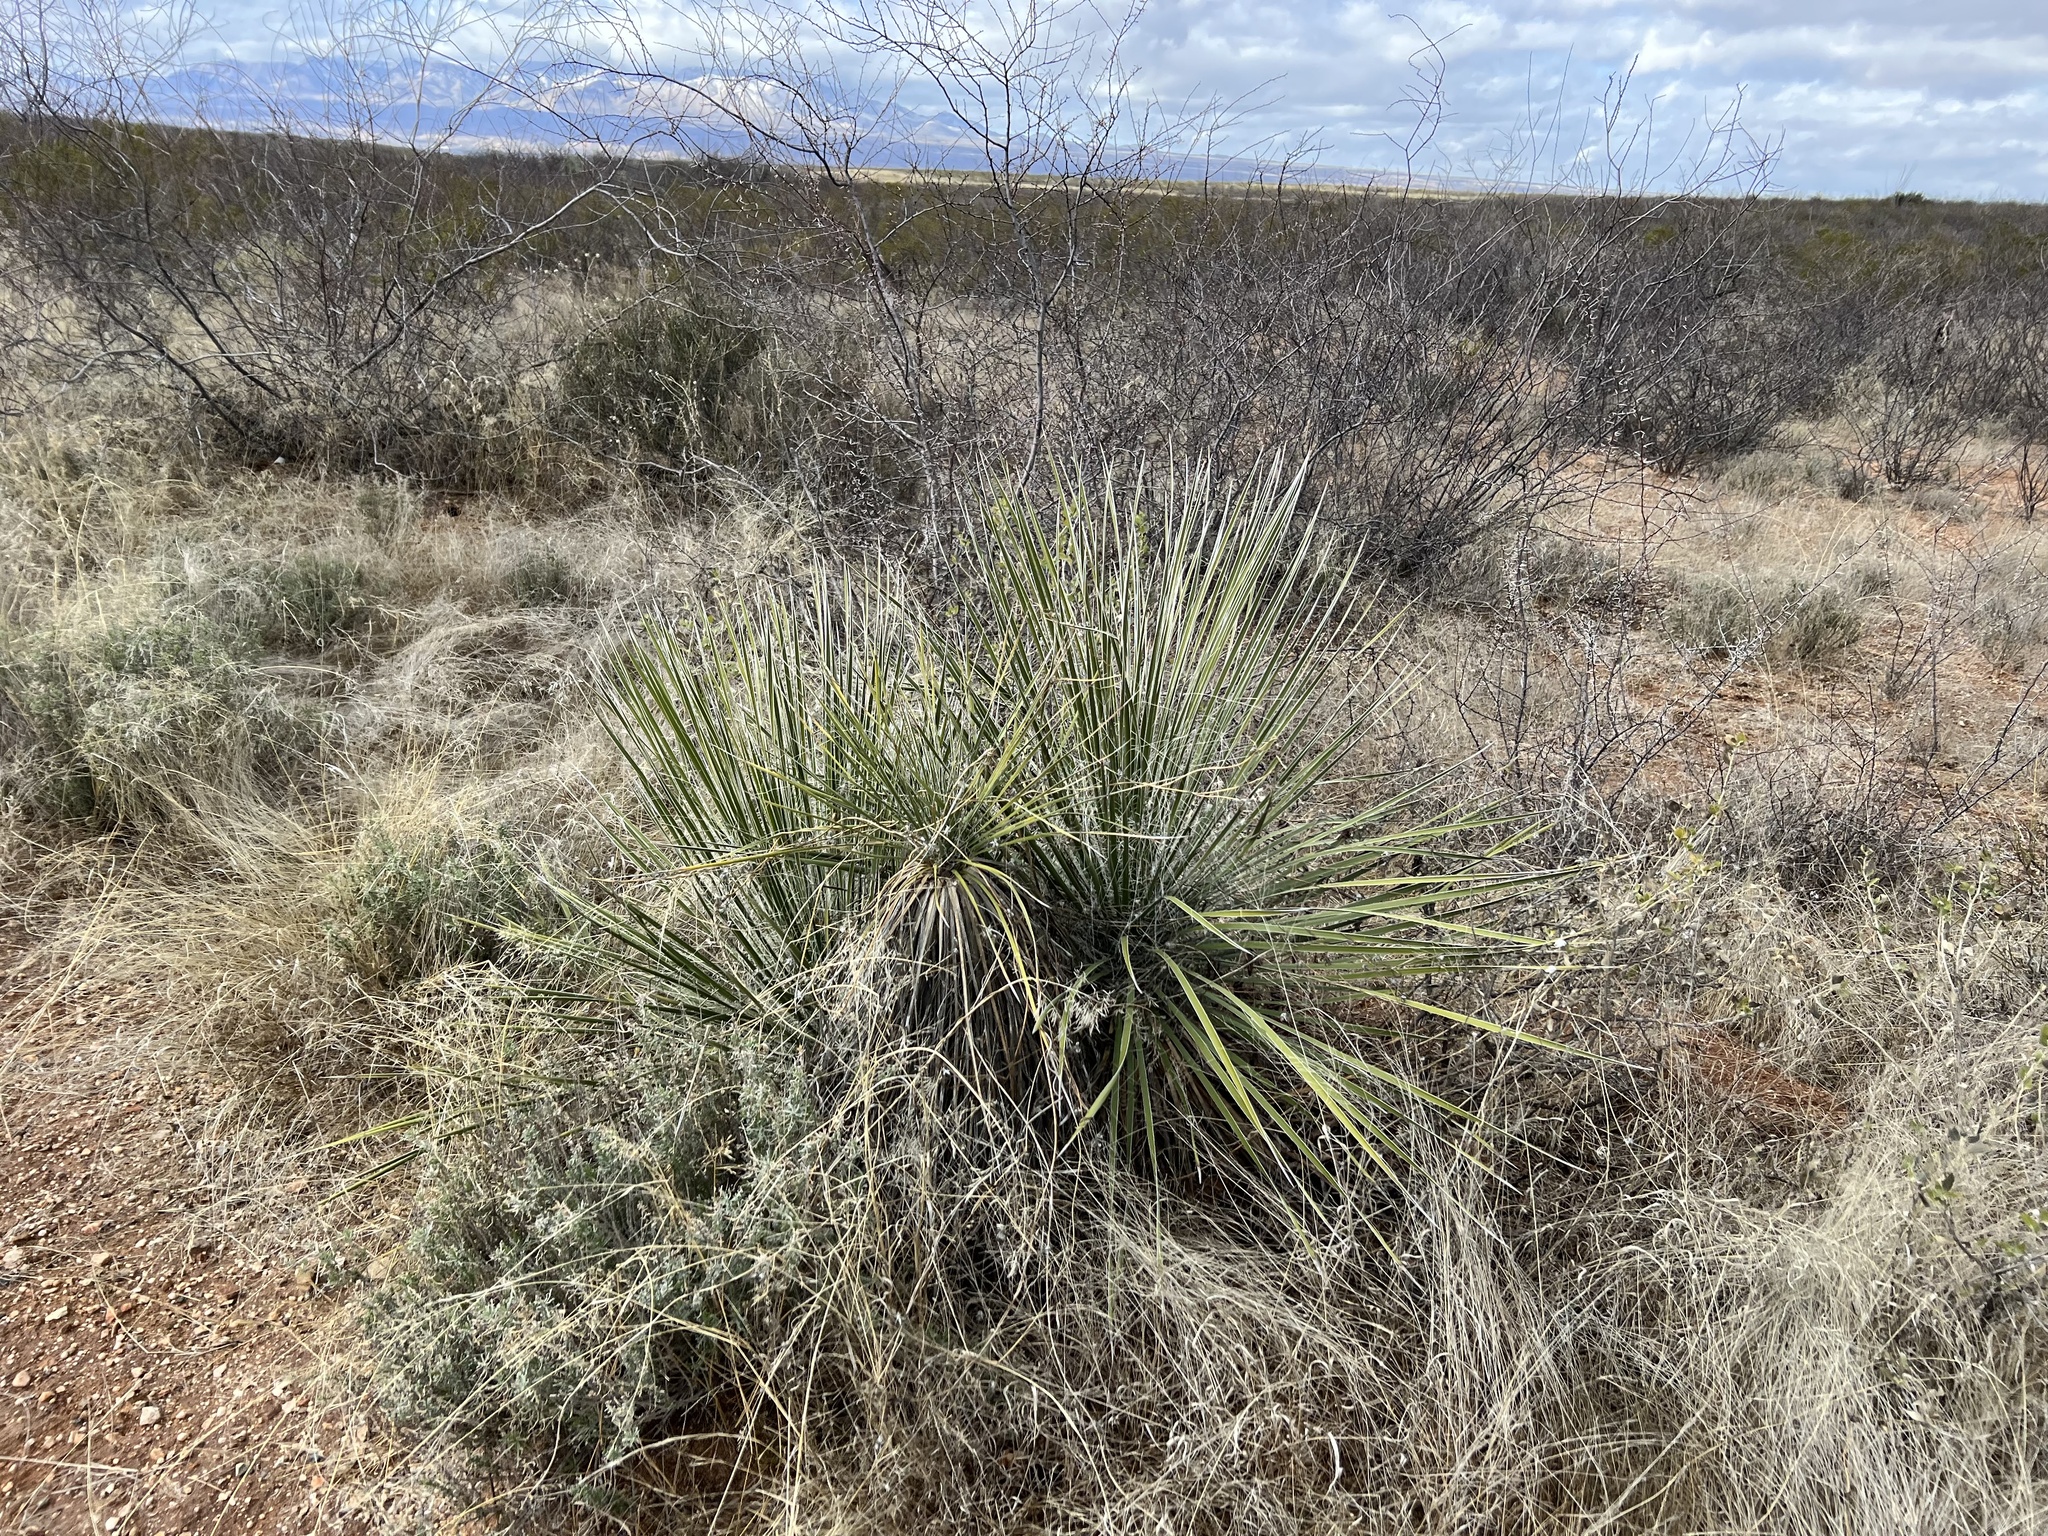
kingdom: Plantae
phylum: Tracheophyta
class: Liliopsida
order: Asparagales
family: Asparagaceae
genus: Yucca
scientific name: Yucca elata
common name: Palmella
